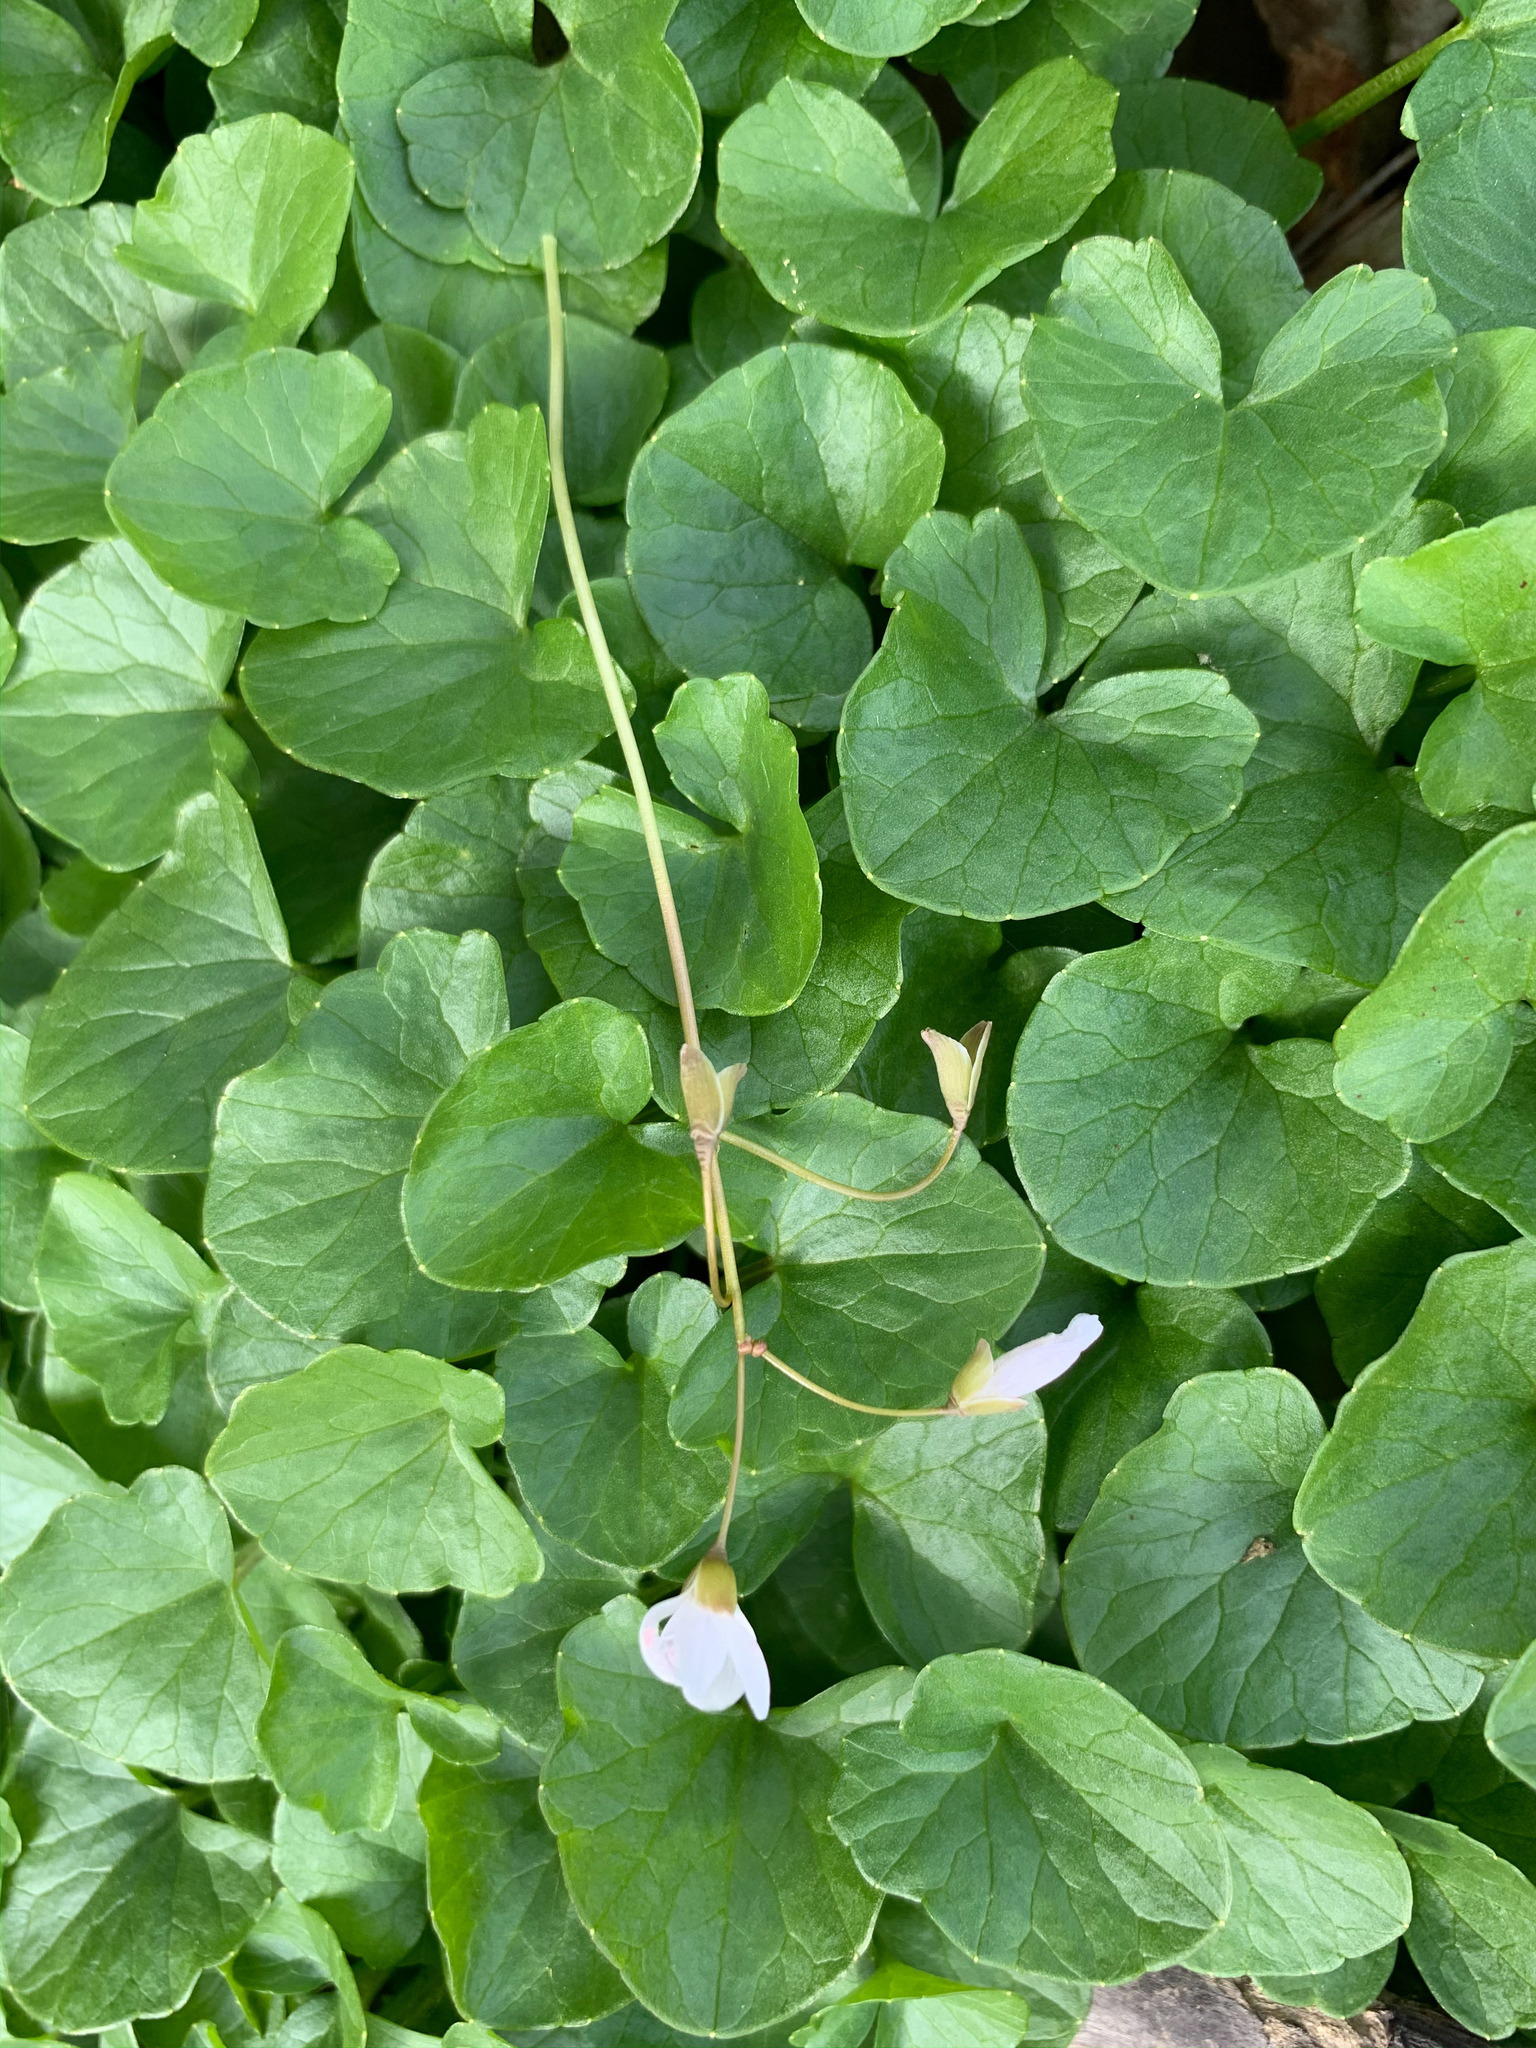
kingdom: Plantae
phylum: Tracheophyta
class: Magnoliopsida
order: Caryophyllales
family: Montiaceae
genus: Claytonia
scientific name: Claytonia virginica
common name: Virginia springbeauty
